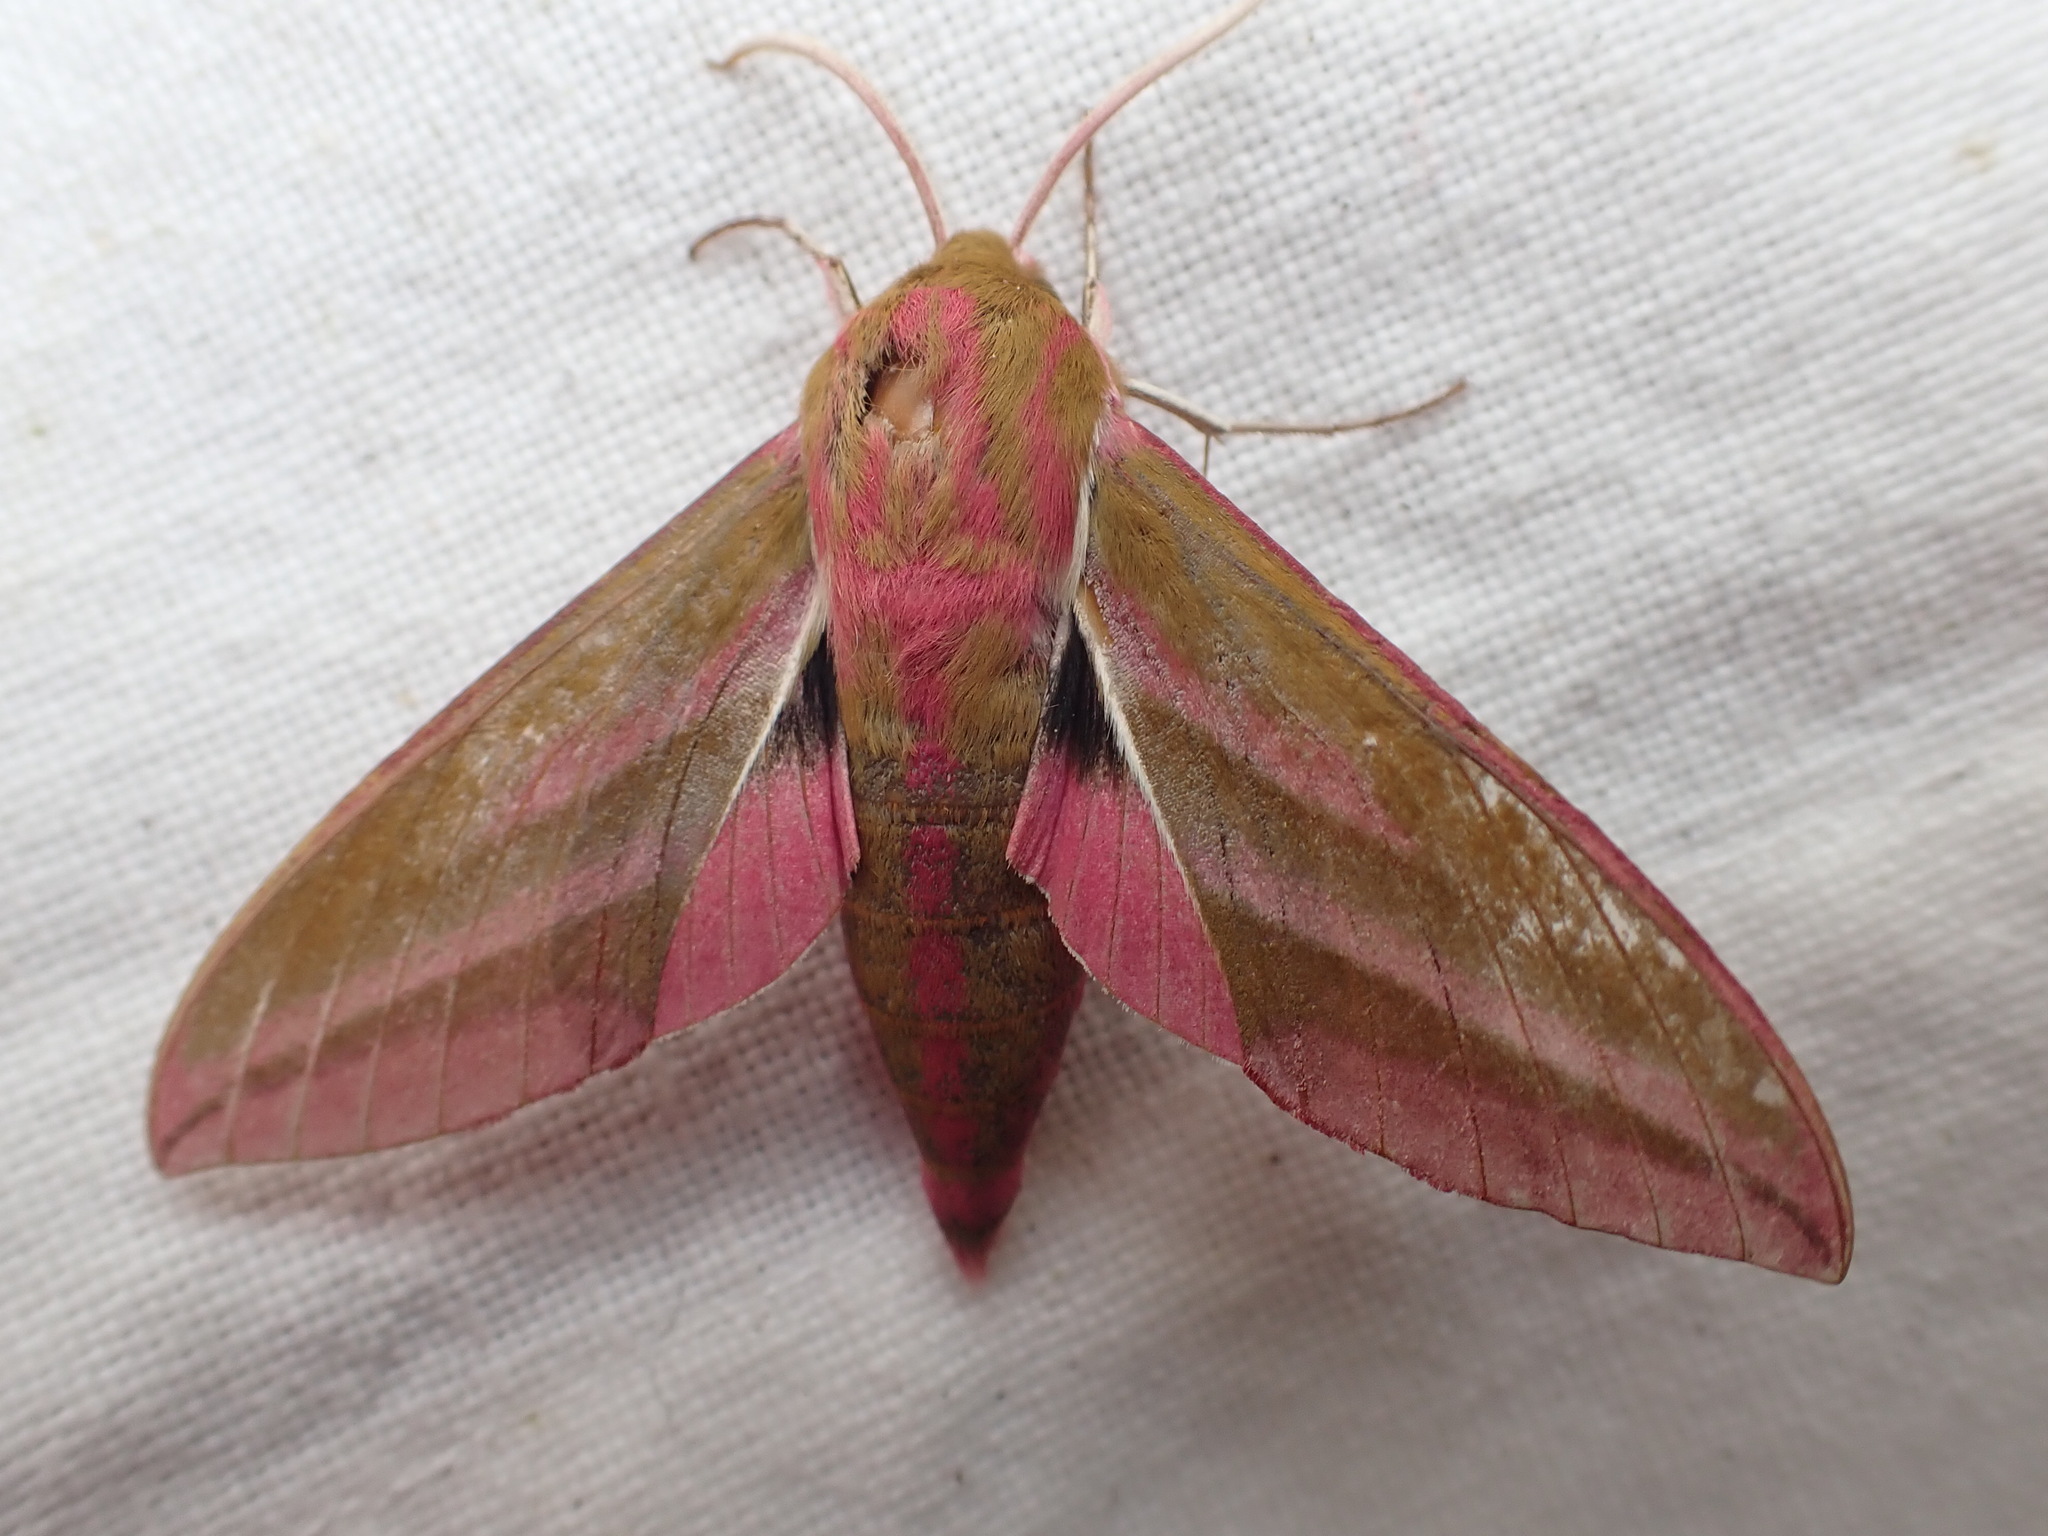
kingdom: Animalia
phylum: Arthropoda
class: Insecta
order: Lepidoptera
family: Sphingidae
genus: Deilephila
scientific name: Deilephila elpenor
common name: Elephant hawk-moth
